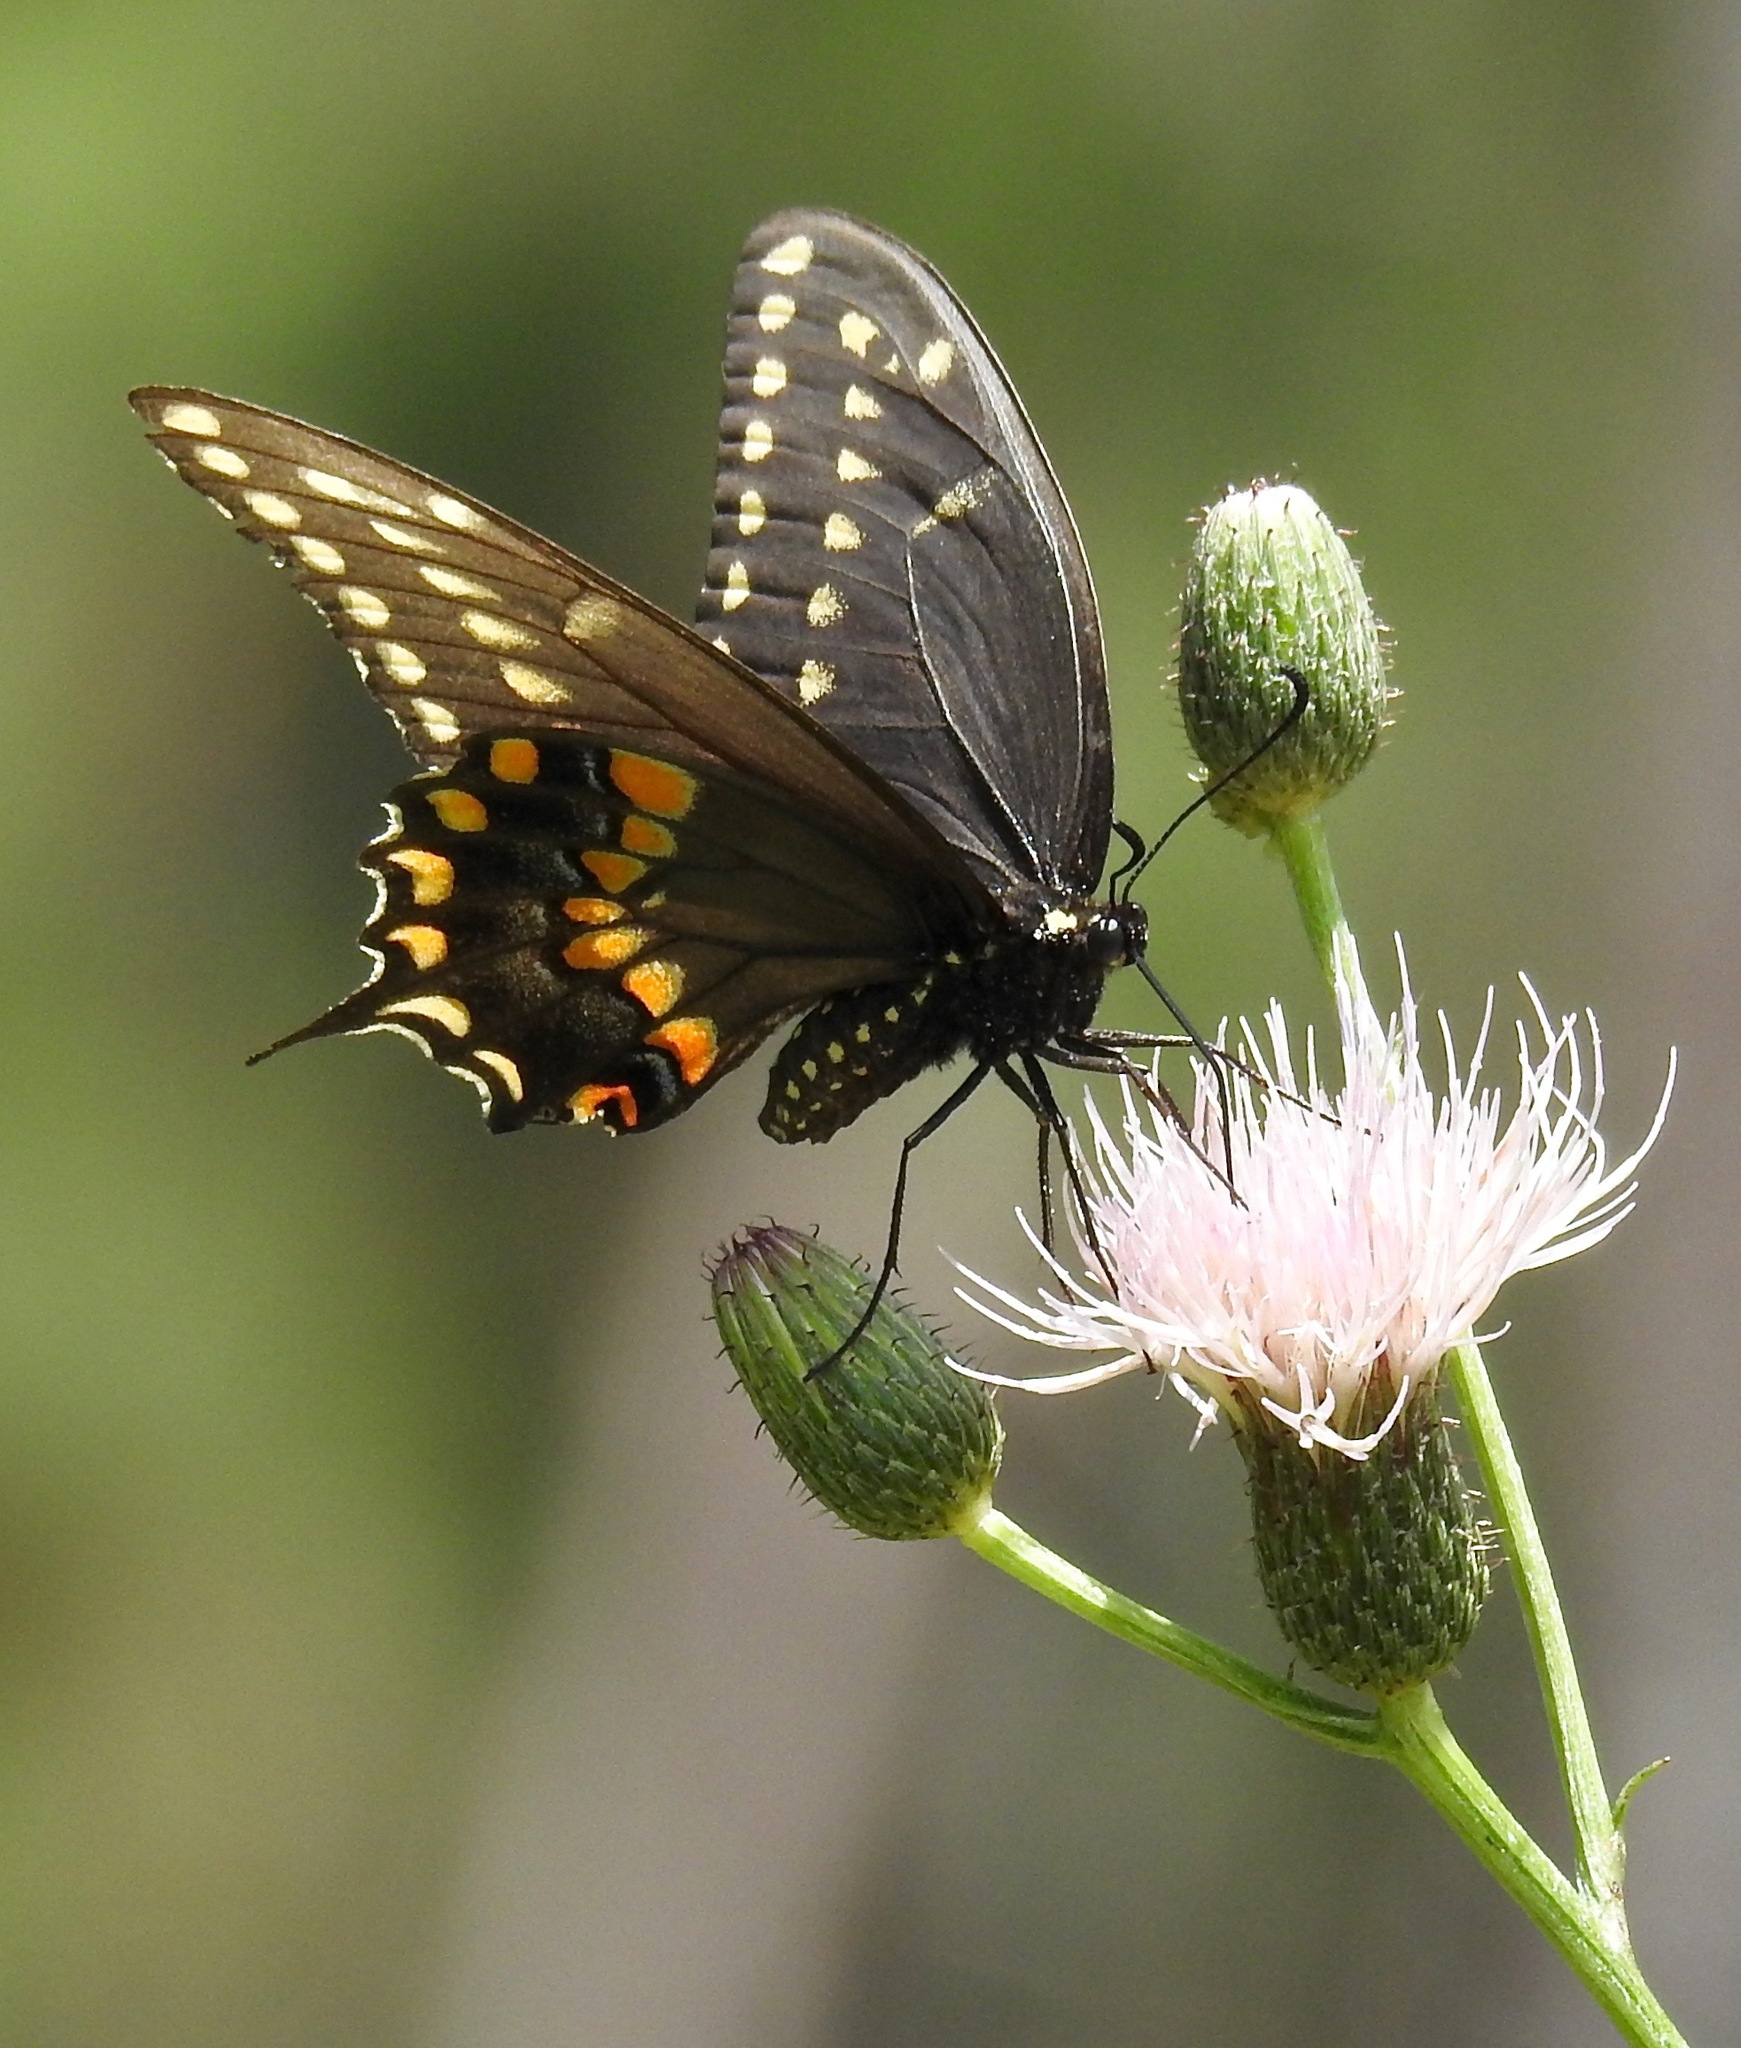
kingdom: Animalia
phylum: Arthropoda
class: Insecta
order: Lepidoptera
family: Papilionidae
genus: Papilio
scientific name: Papilio polyxenes
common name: Black swallowtail
